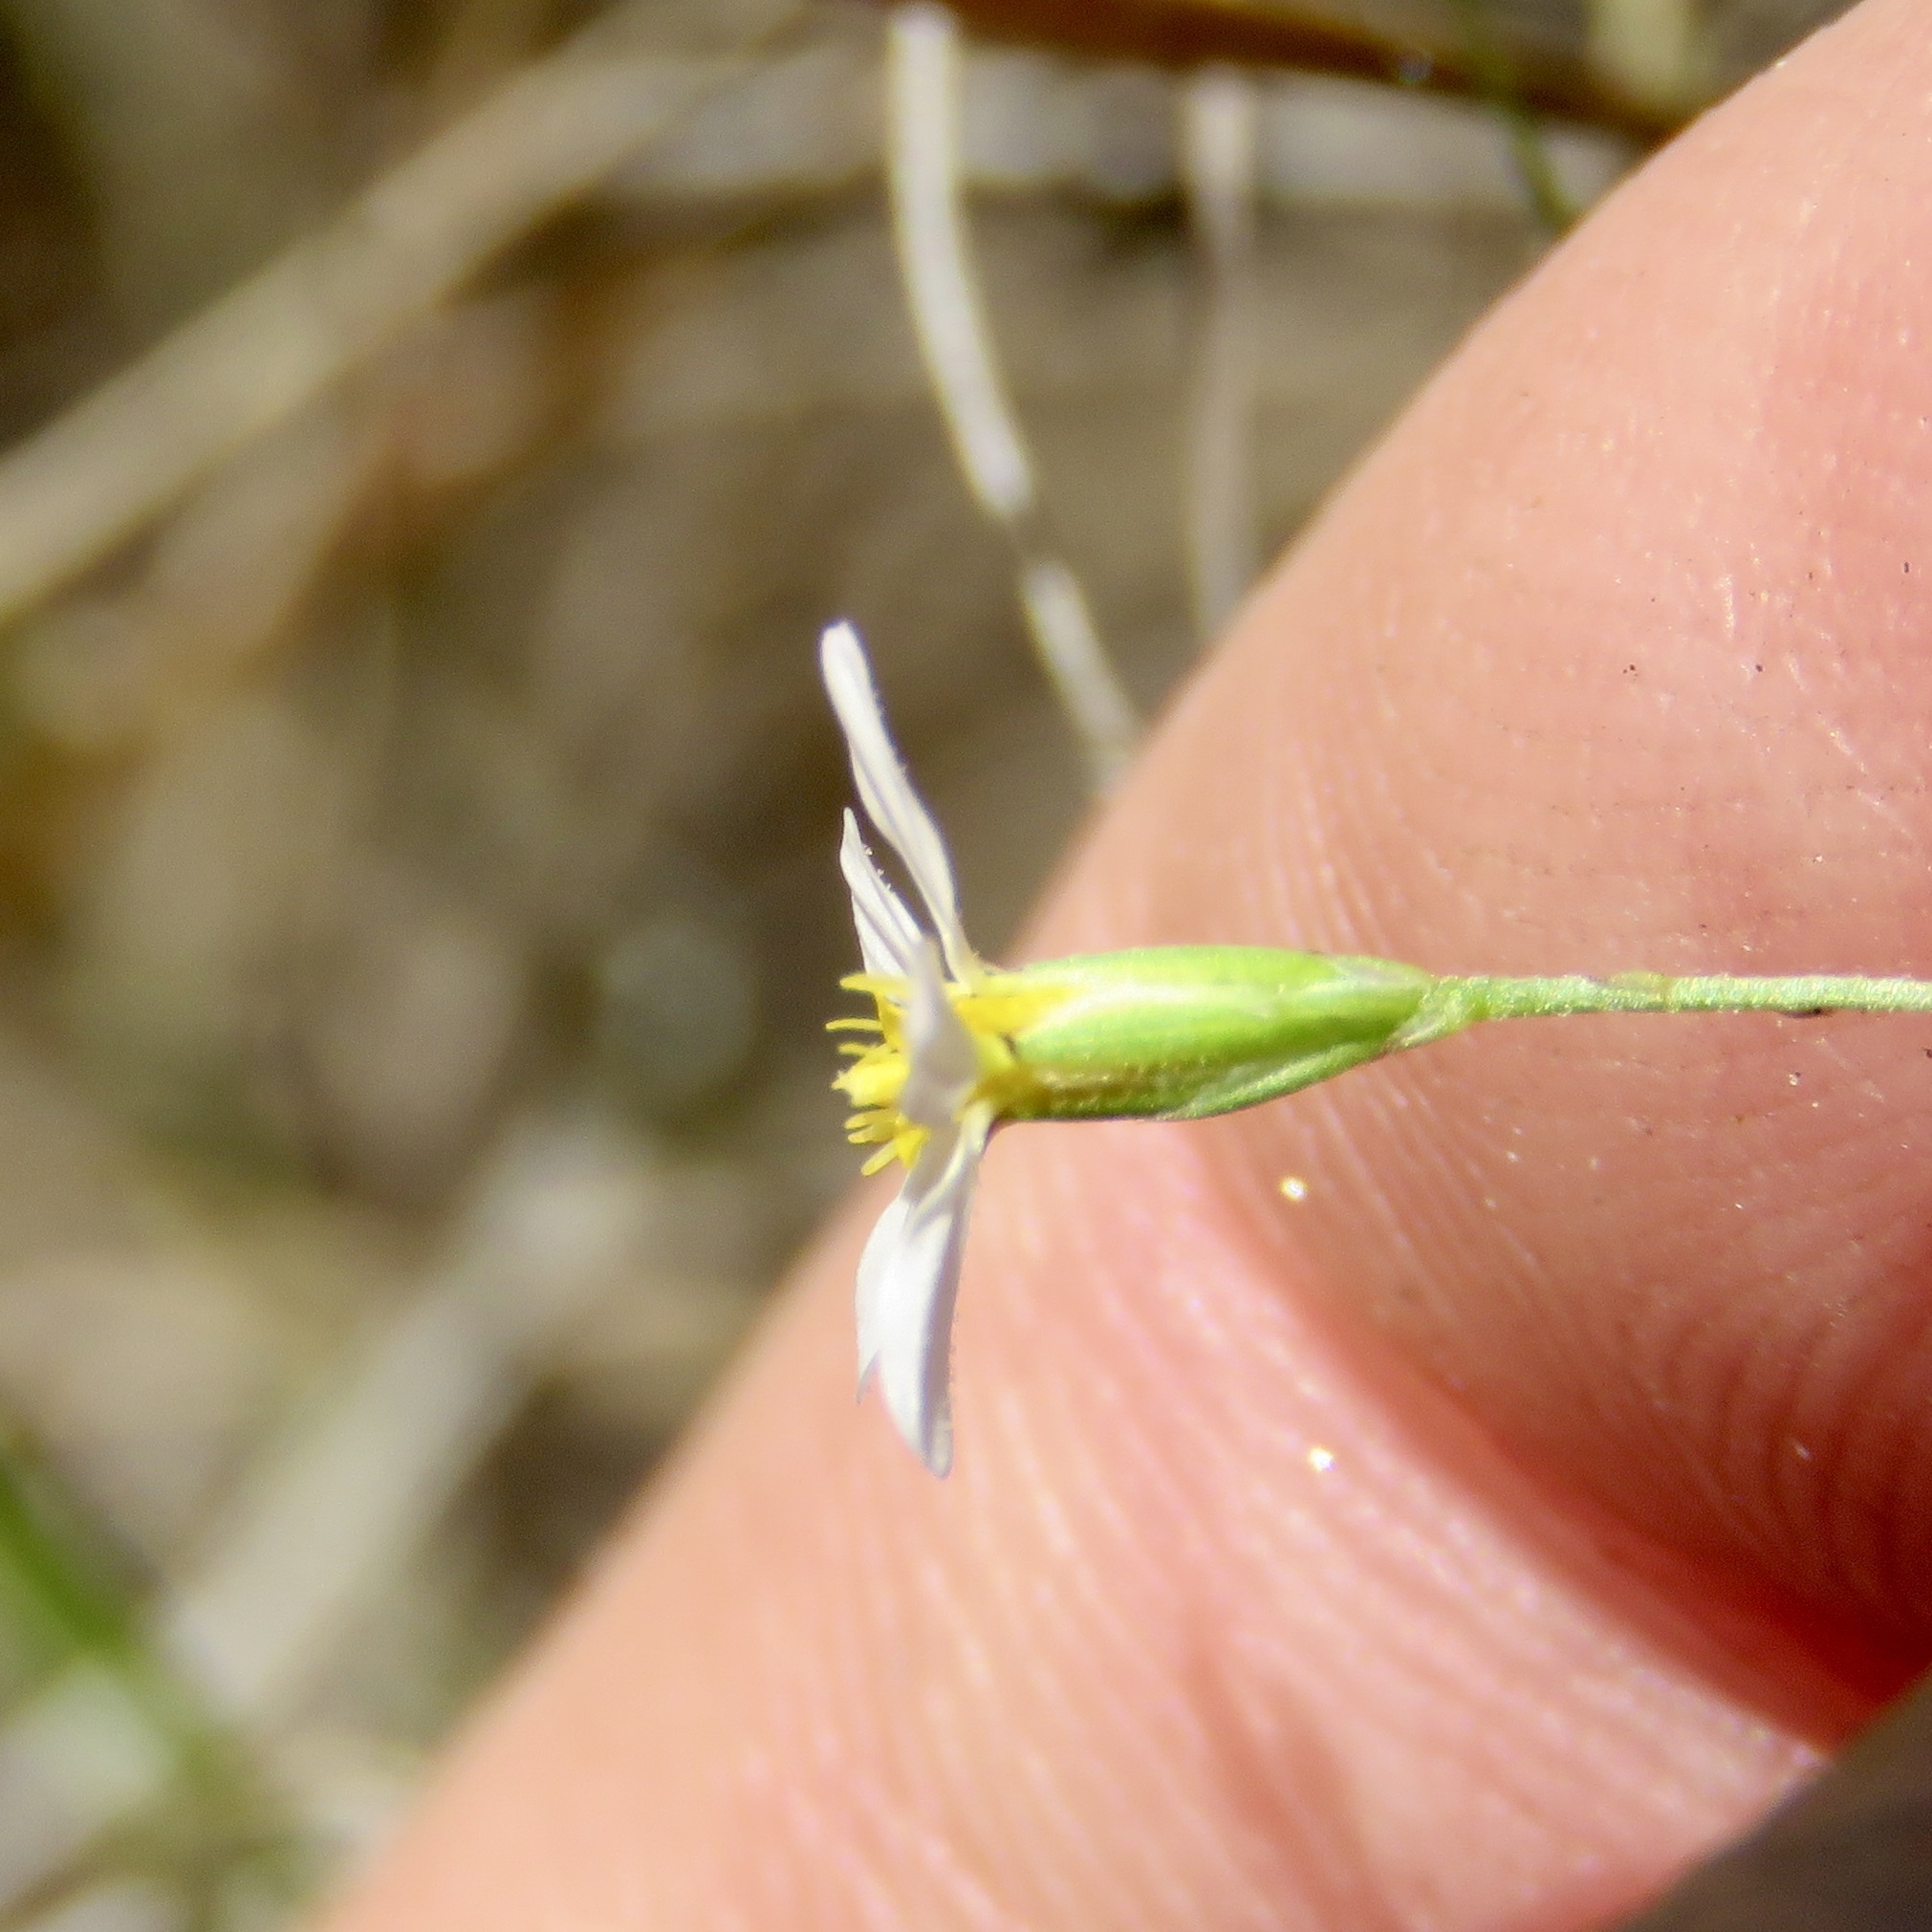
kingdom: Plantae
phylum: Tracheophyta
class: Magnoliopsida
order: Asterales
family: Asteraceae
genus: Chaetopappa
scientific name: Chaetopappa asteroides
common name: Tiny lazy daisy
